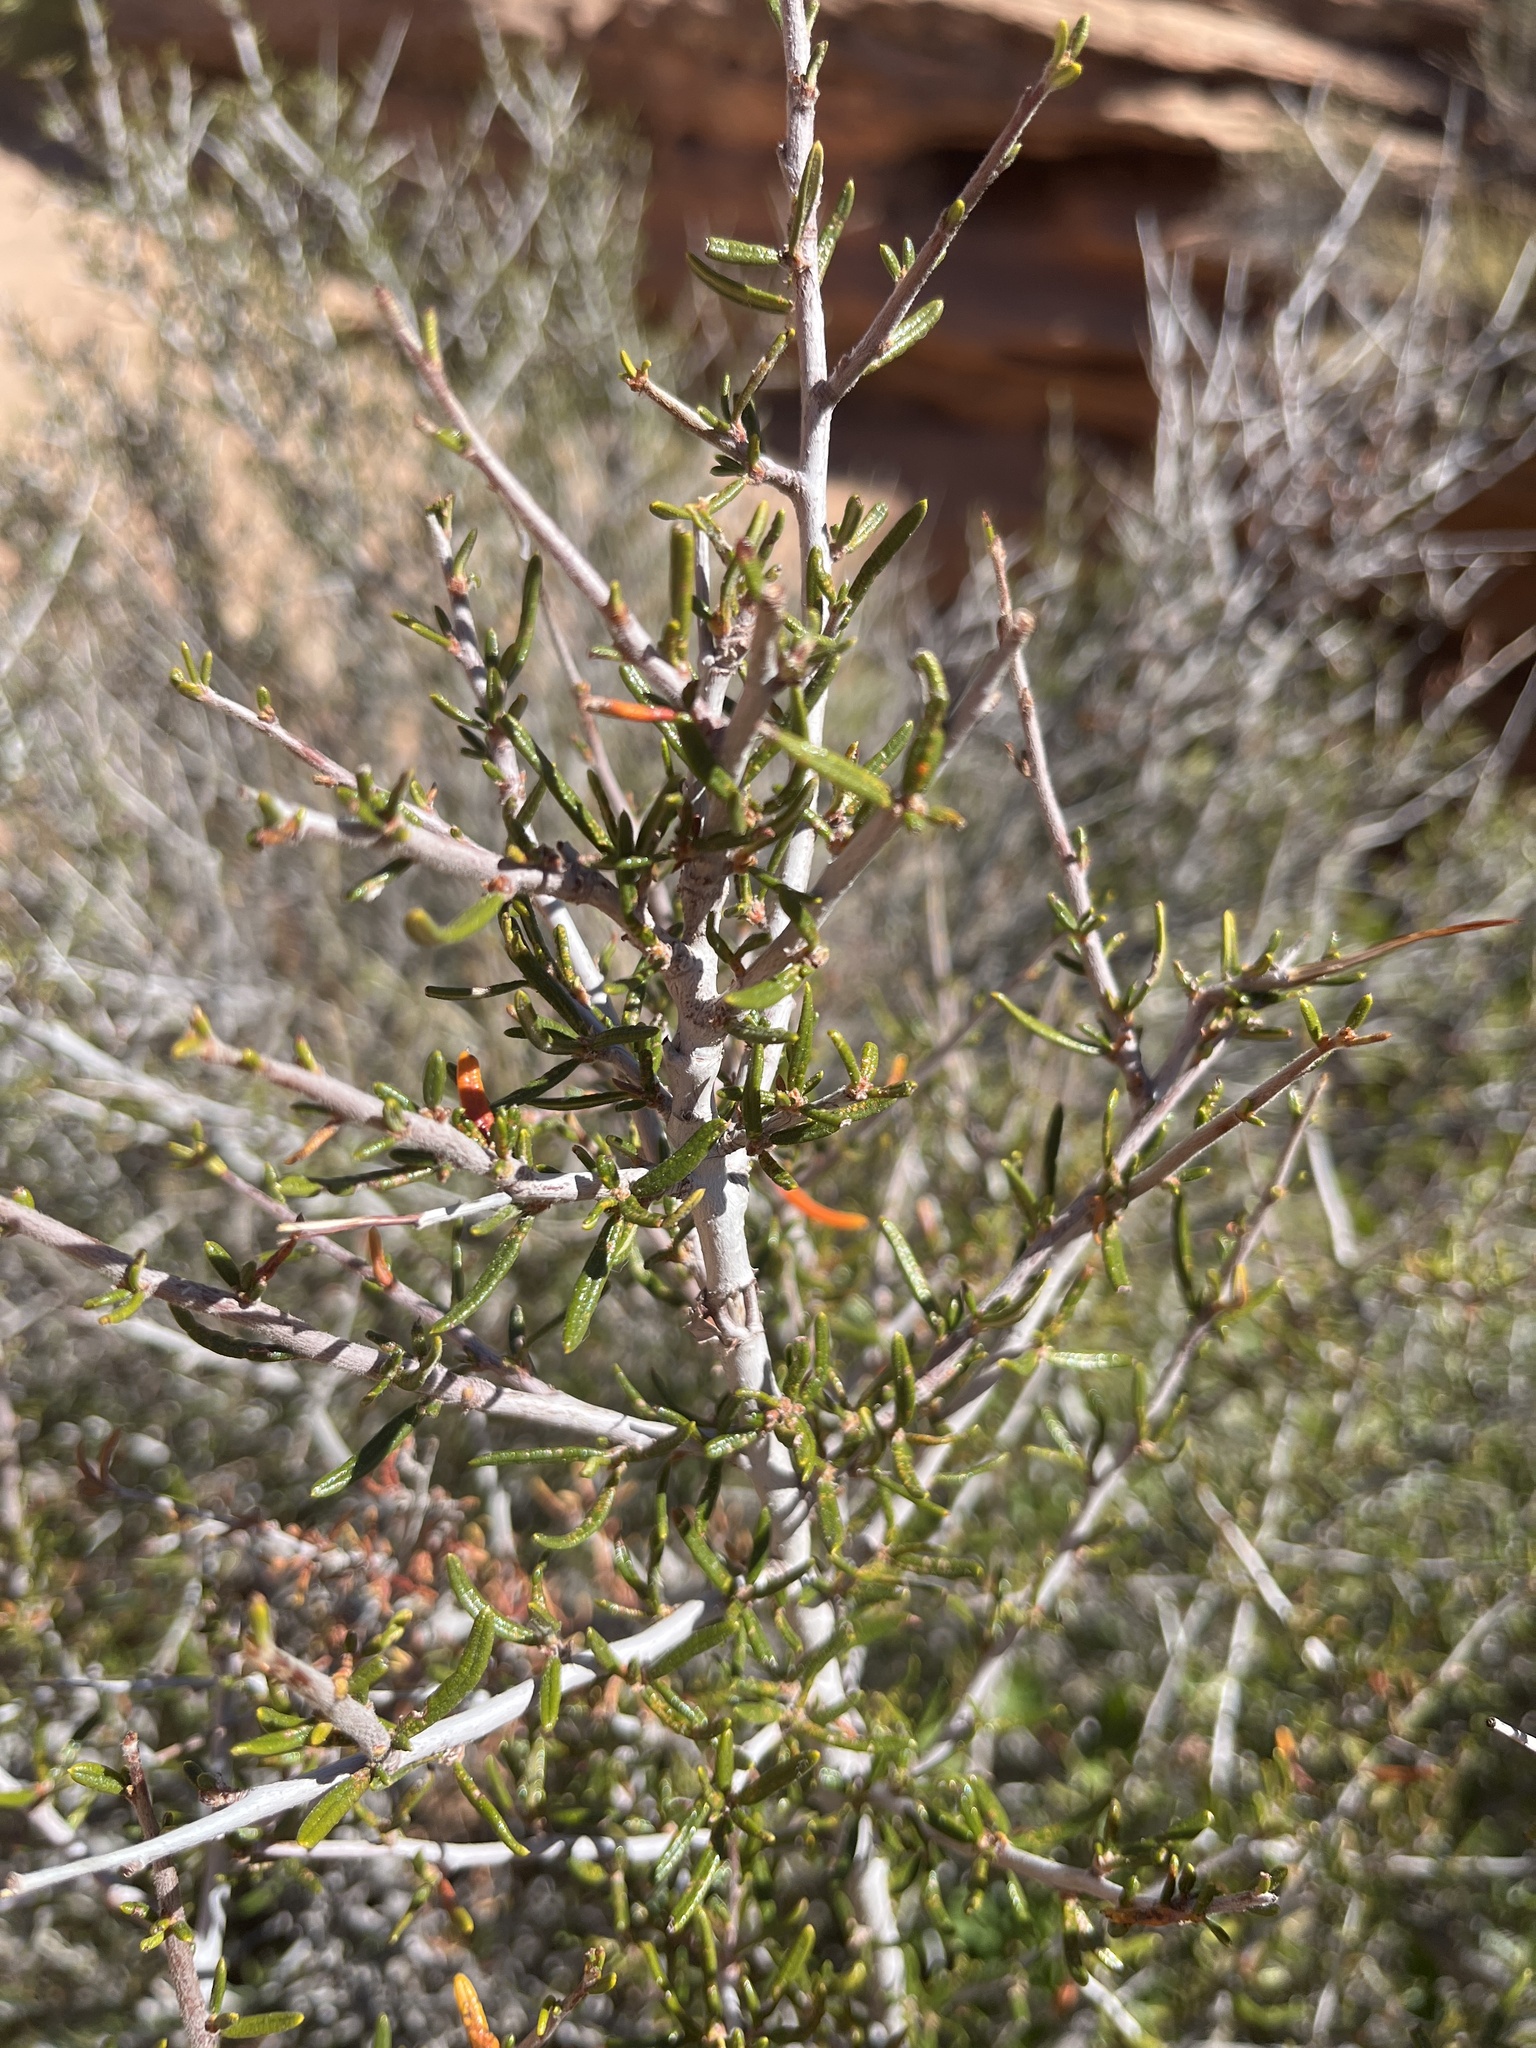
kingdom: Plantae
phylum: Tracheophyta
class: Magnoliopsida
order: Rosales
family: Rosaceae
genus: Cercocarpus
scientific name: Cercocarpus intricatus
